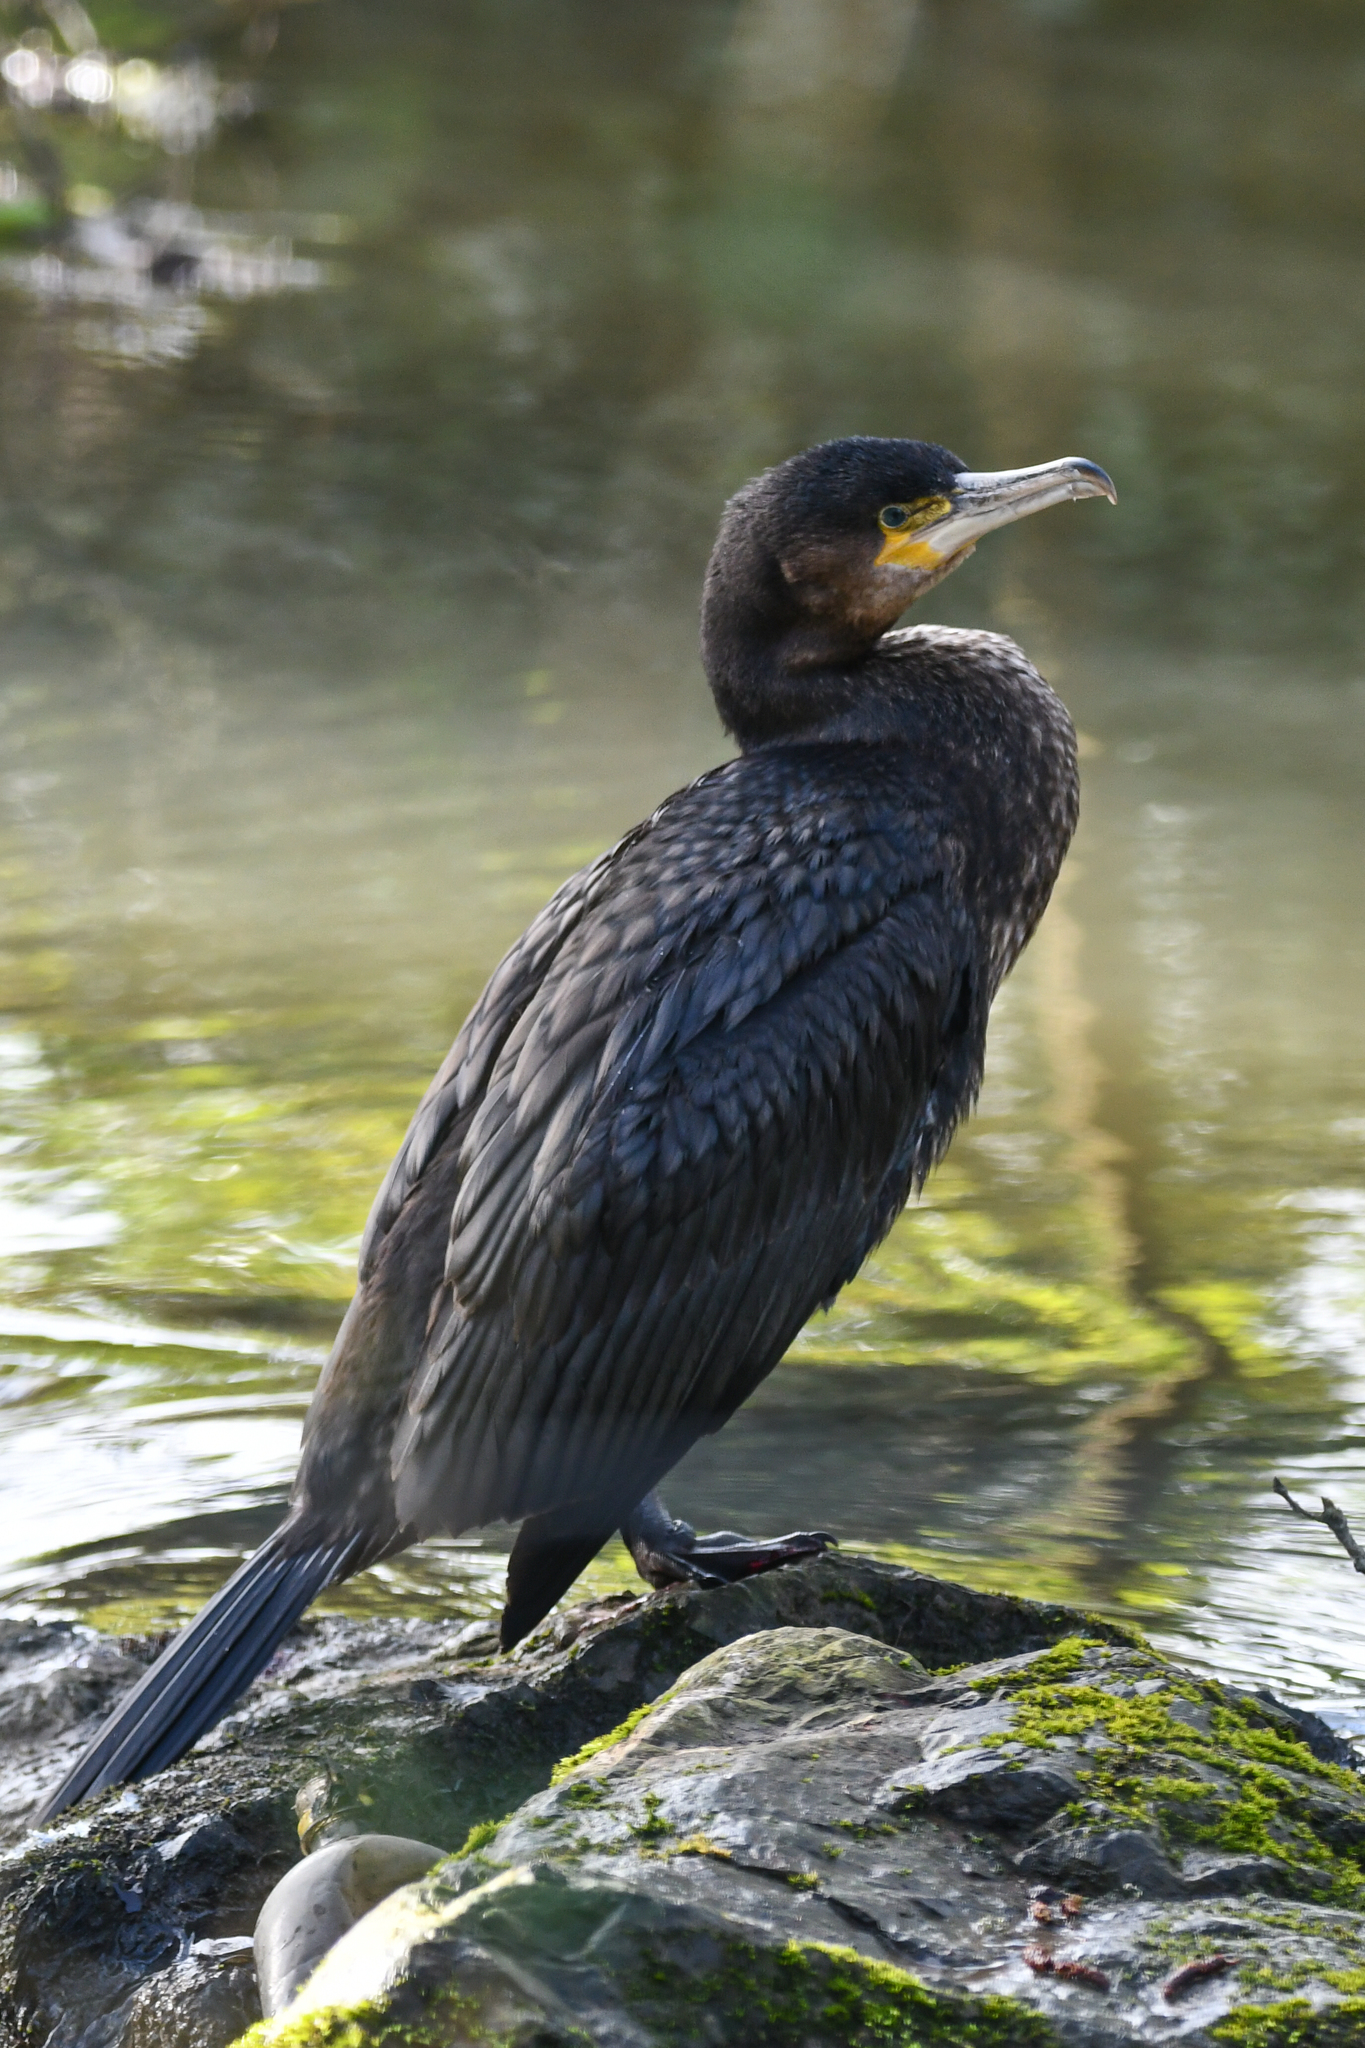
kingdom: Animalia
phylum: Chordata
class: Aves
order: Suliformes
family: Phalacrocoracidae
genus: Phalacrocorax
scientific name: Phalacrocorax carbo
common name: Great cormorant
